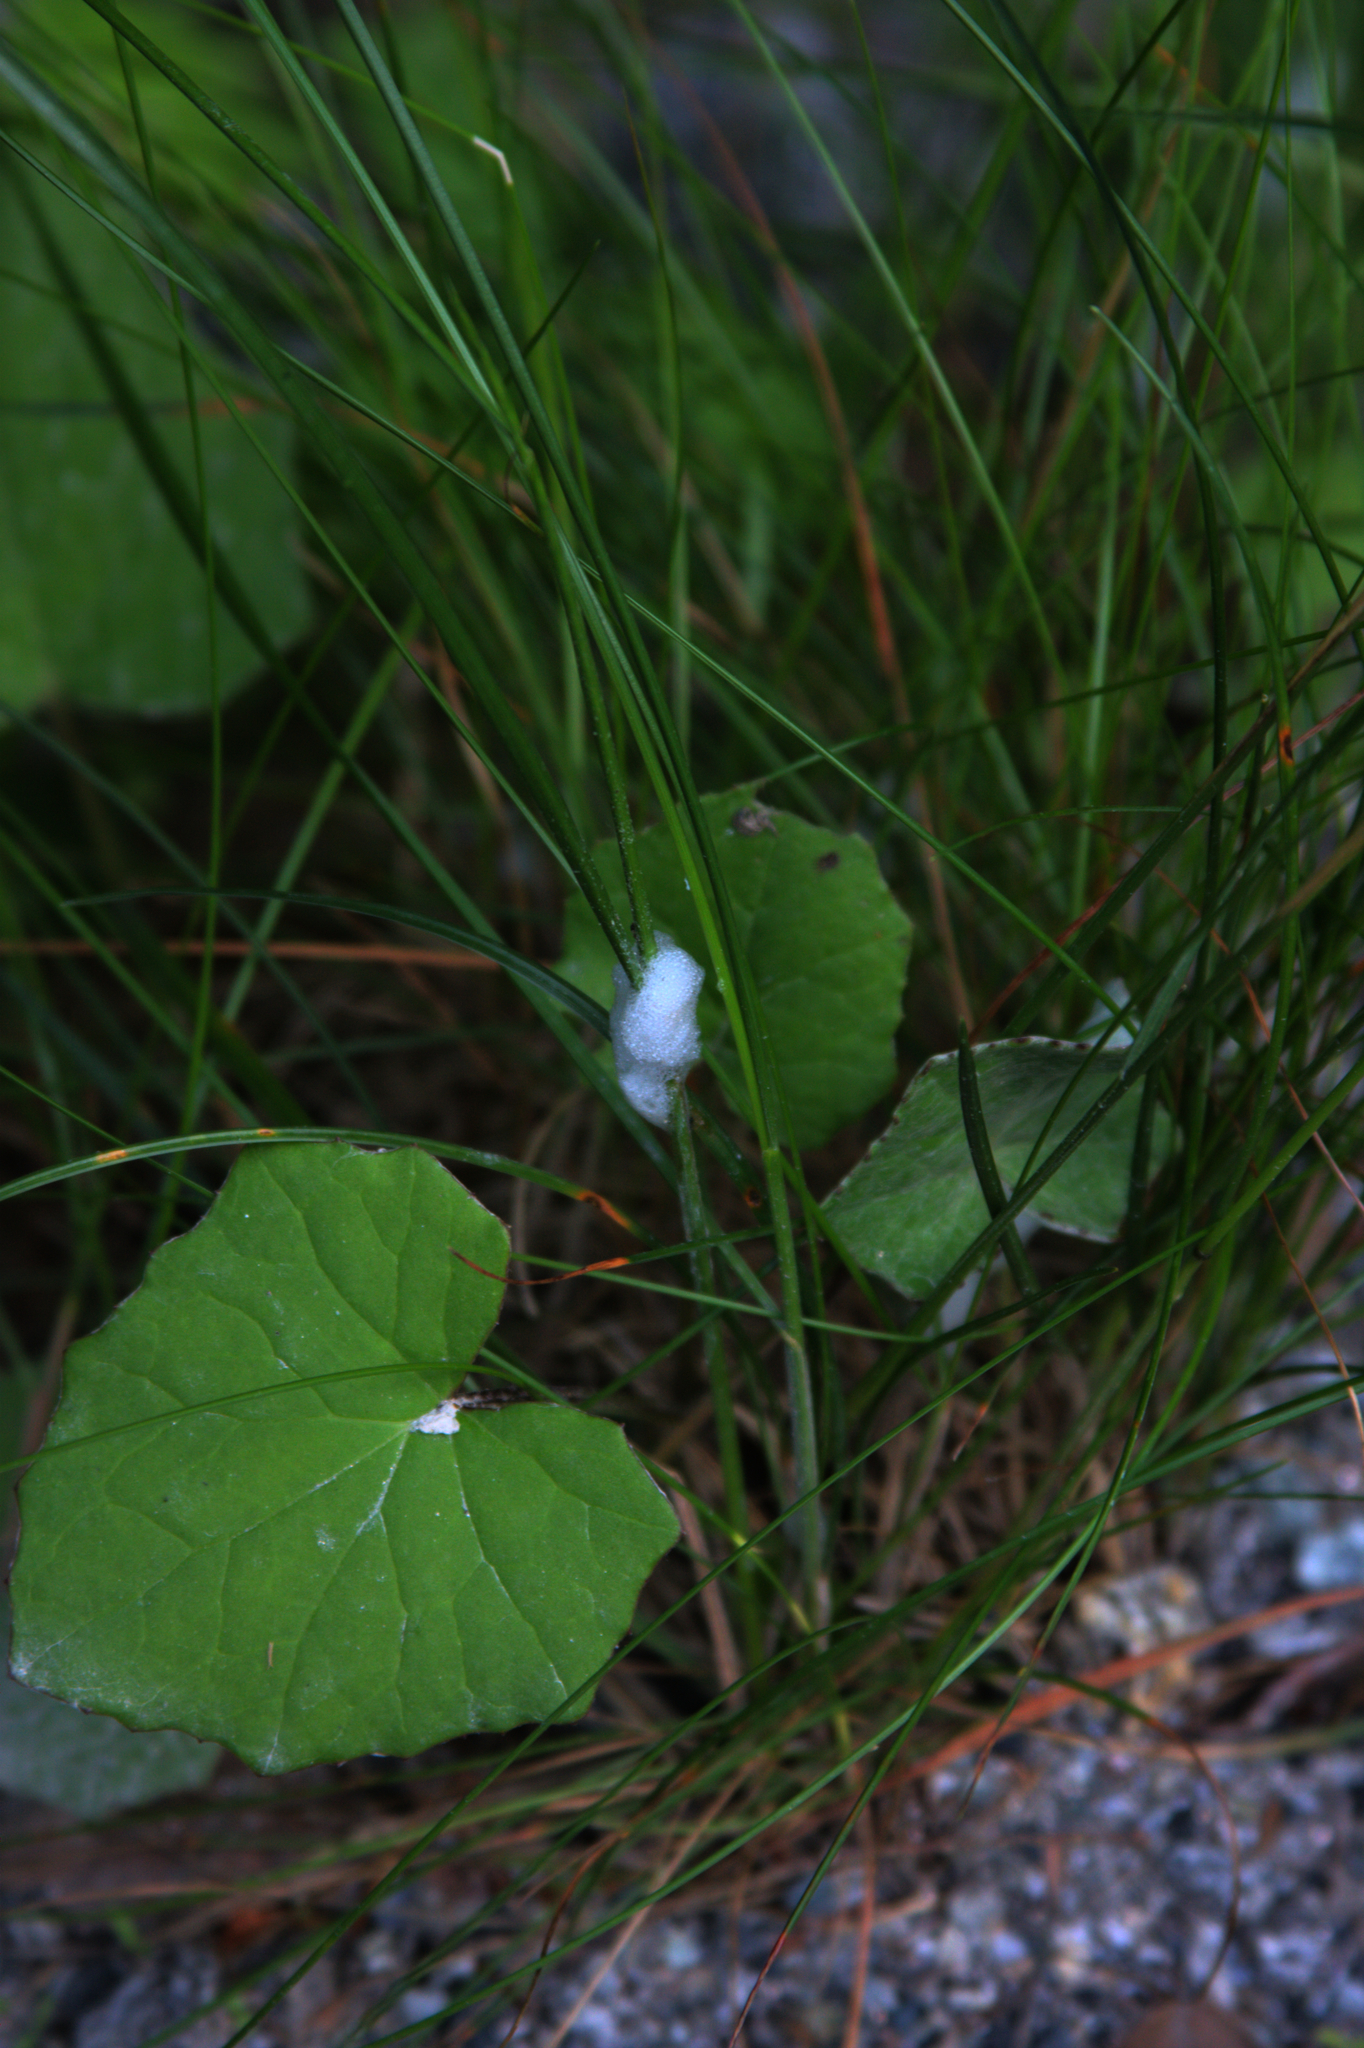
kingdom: Plantae
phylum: Tracheophyta
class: Magnoliopsida
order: Asterales
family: Asteraceae
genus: Tussilago
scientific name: Tussilago farfara
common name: Coltsfoot
